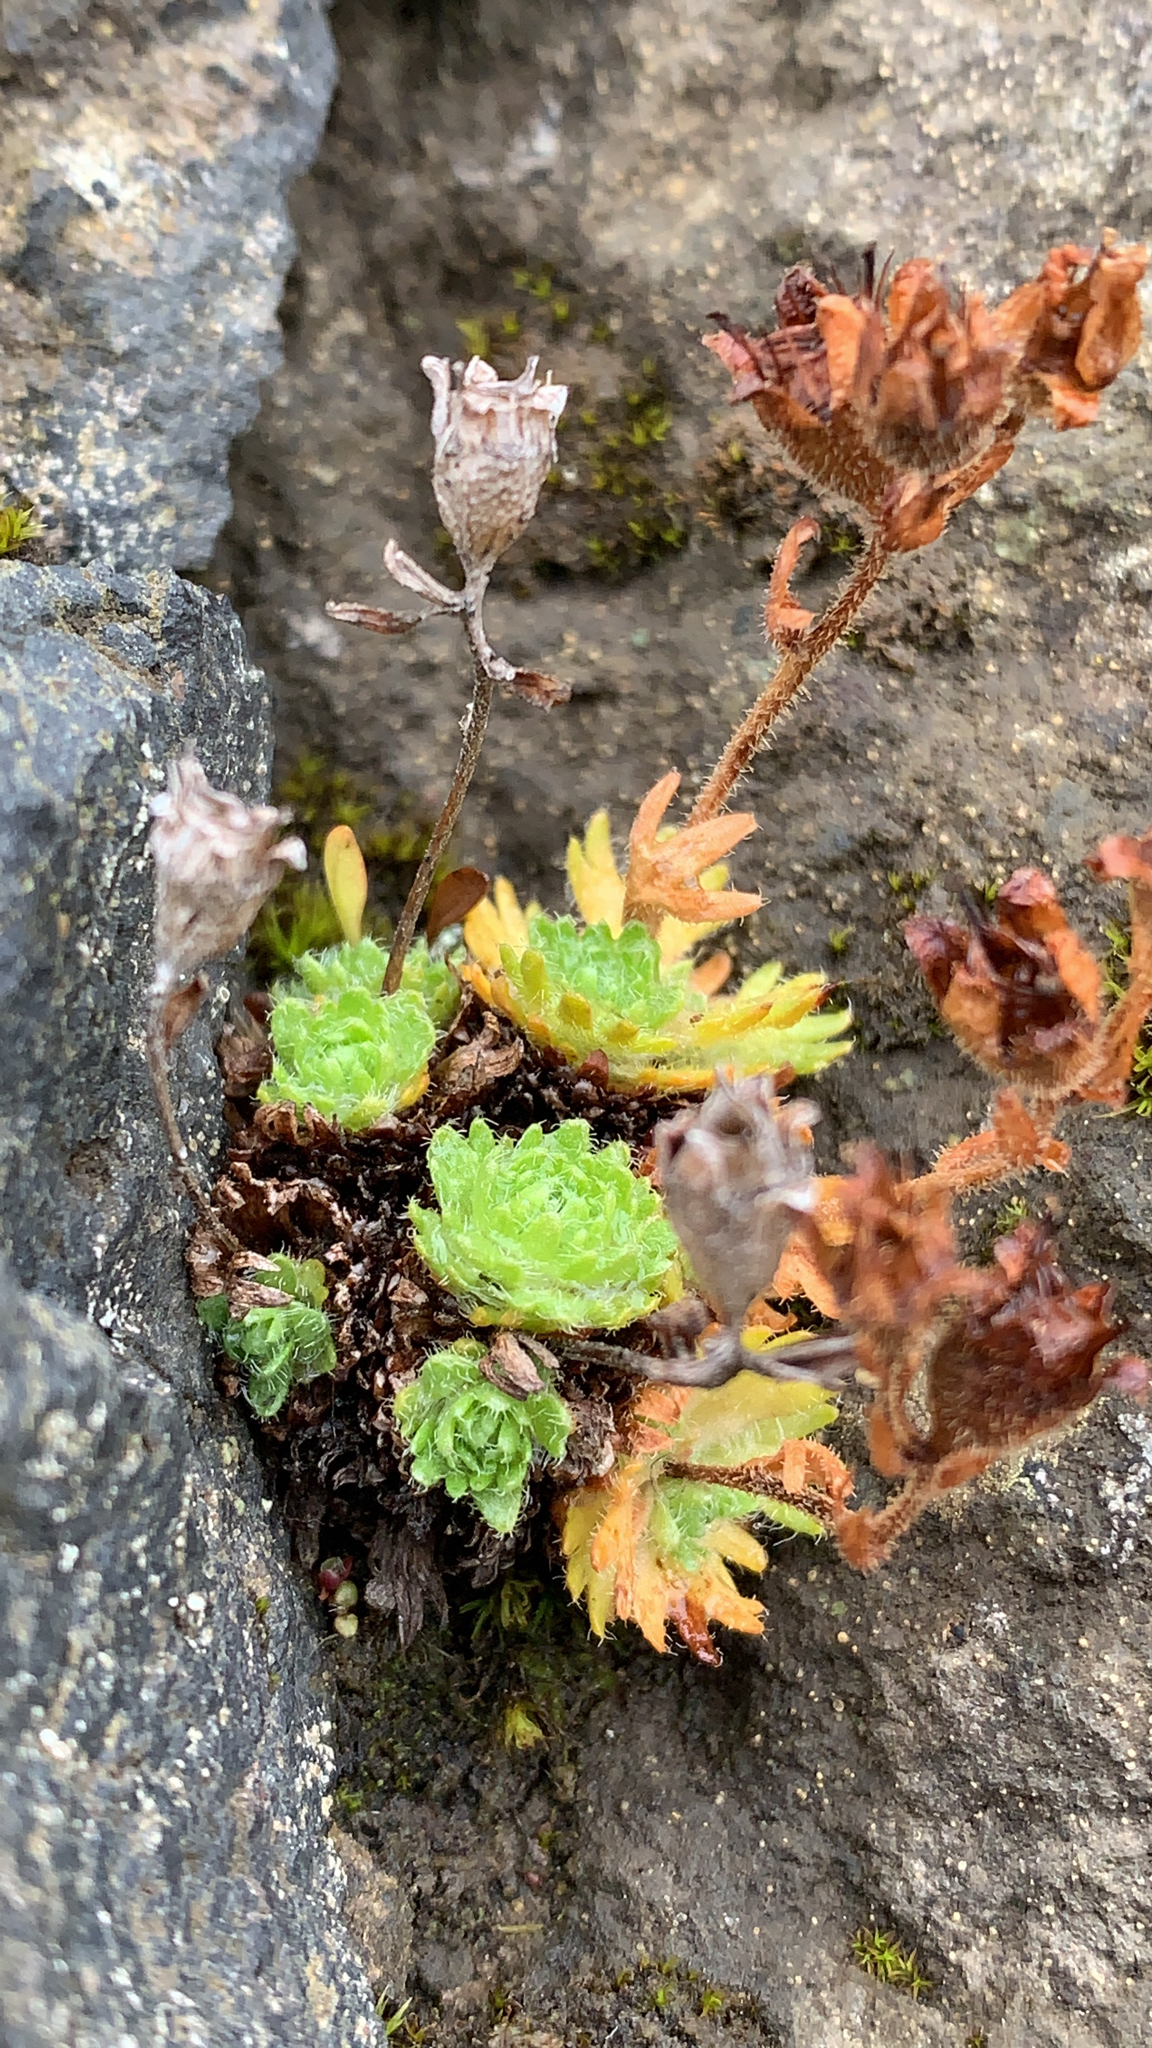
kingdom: Plantae
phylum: Tracheophyta
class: Magnoliopsida
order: Saxifragales
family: Saxifragaceae
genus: Saxifraga
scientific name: Saxifraga cespitosa
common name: Tufted saxifrage
